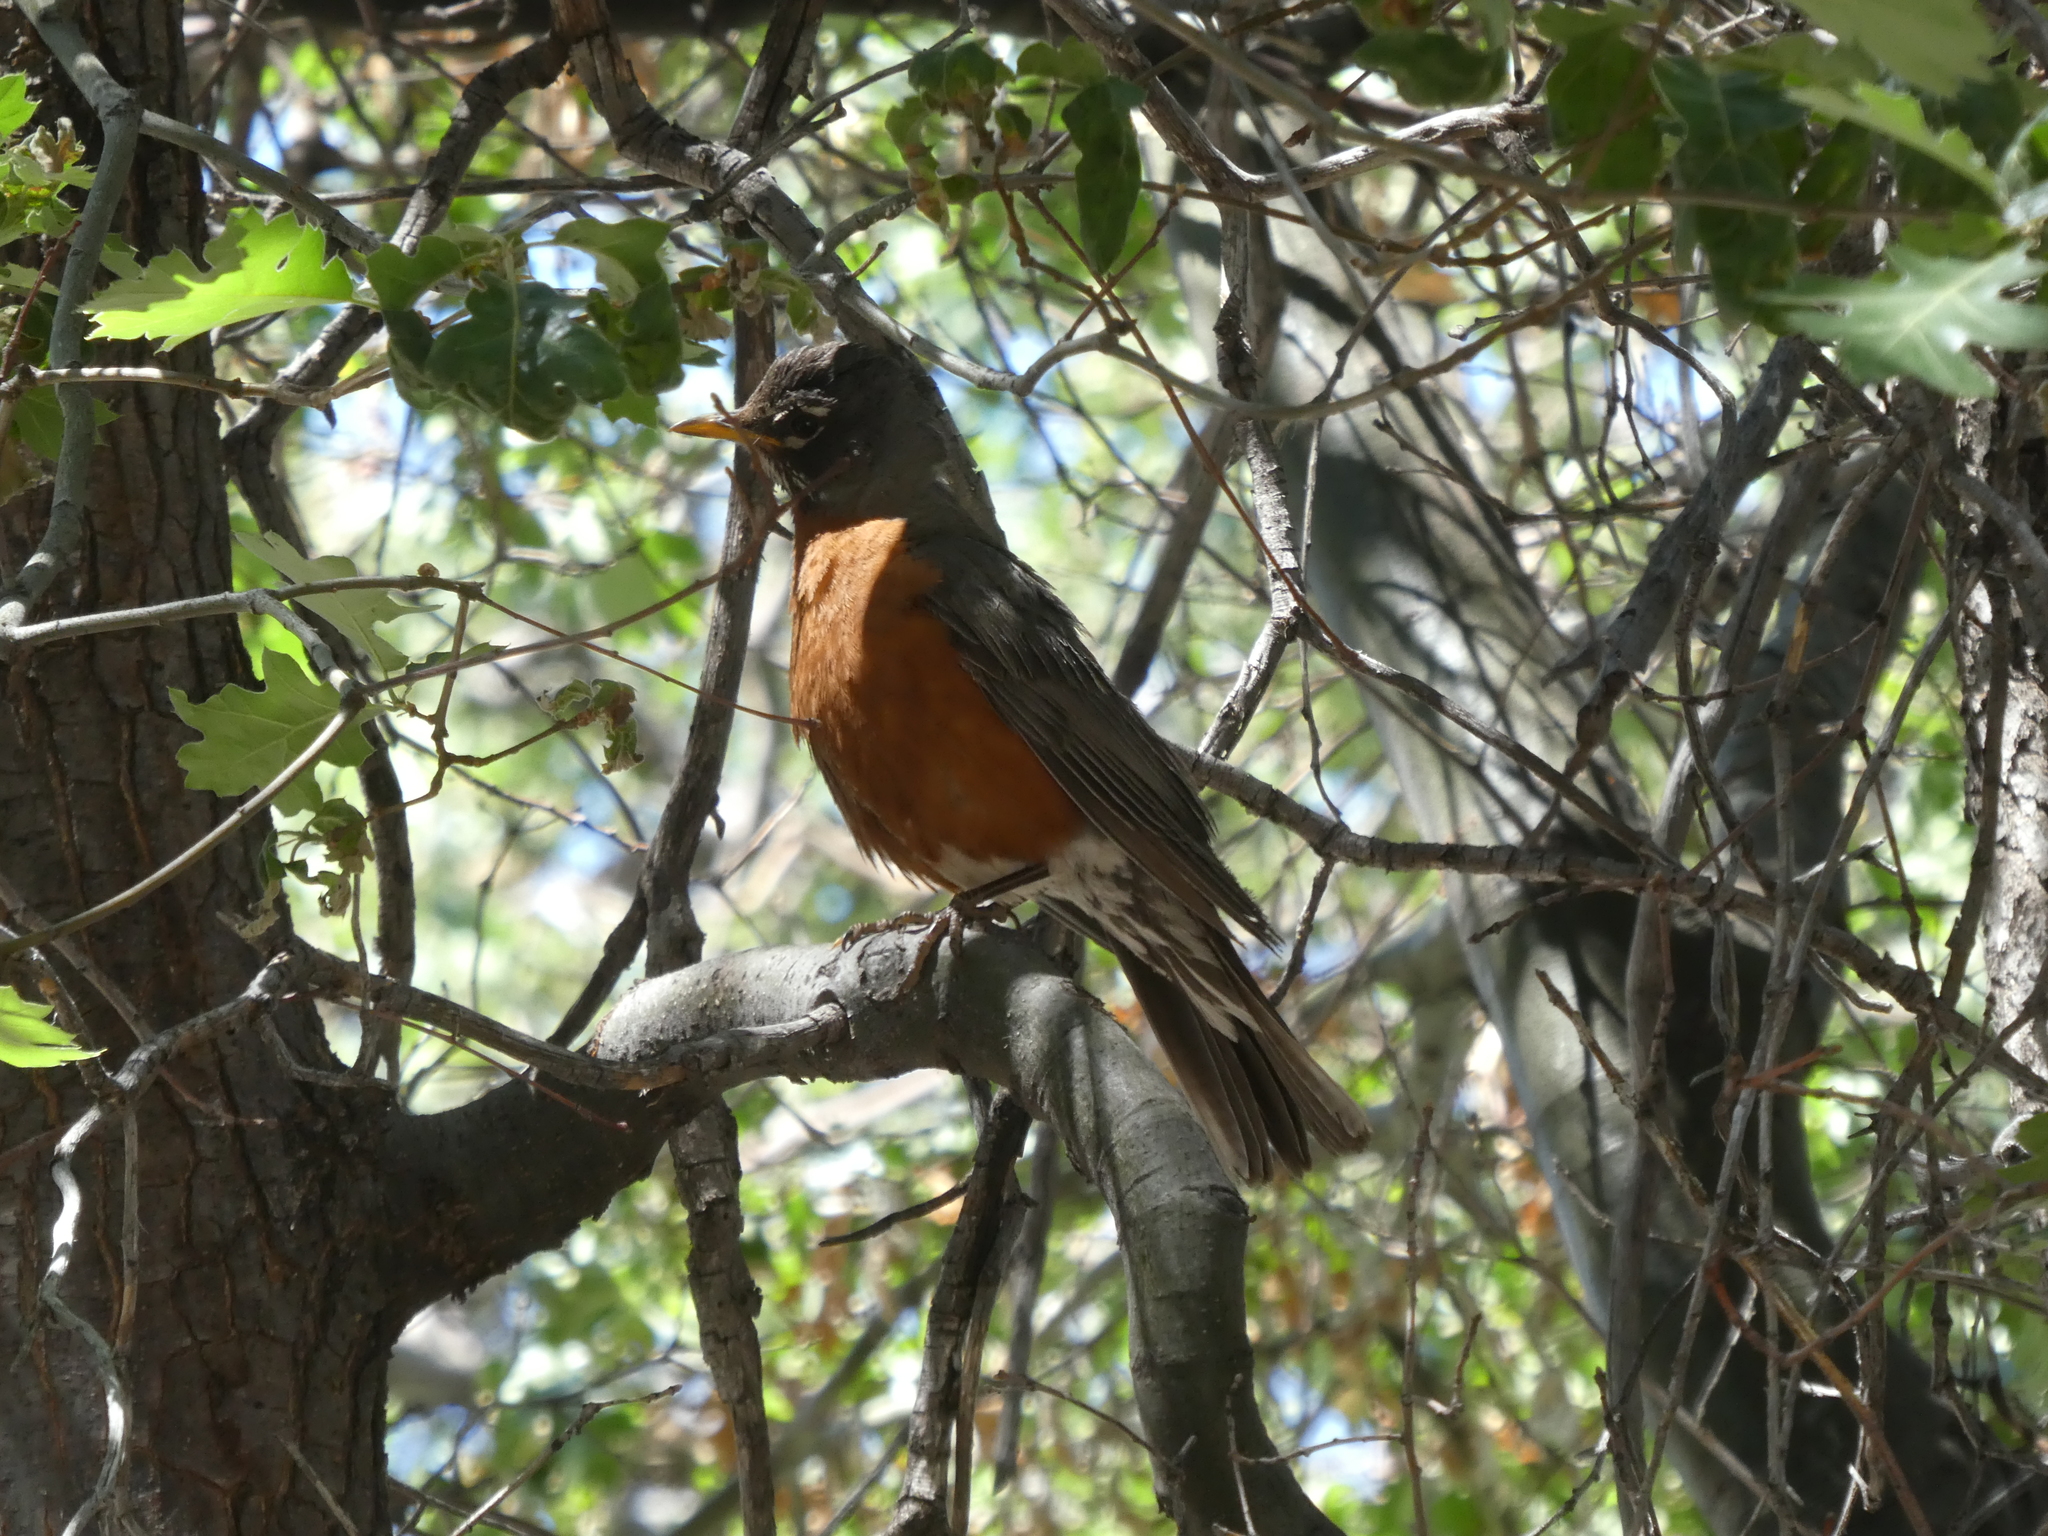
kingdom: Animalia
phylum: Chordata
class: Aves
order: Passeriformes
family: Turdidae
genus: Turdus
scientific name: Turdus migratorius
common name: American robin
